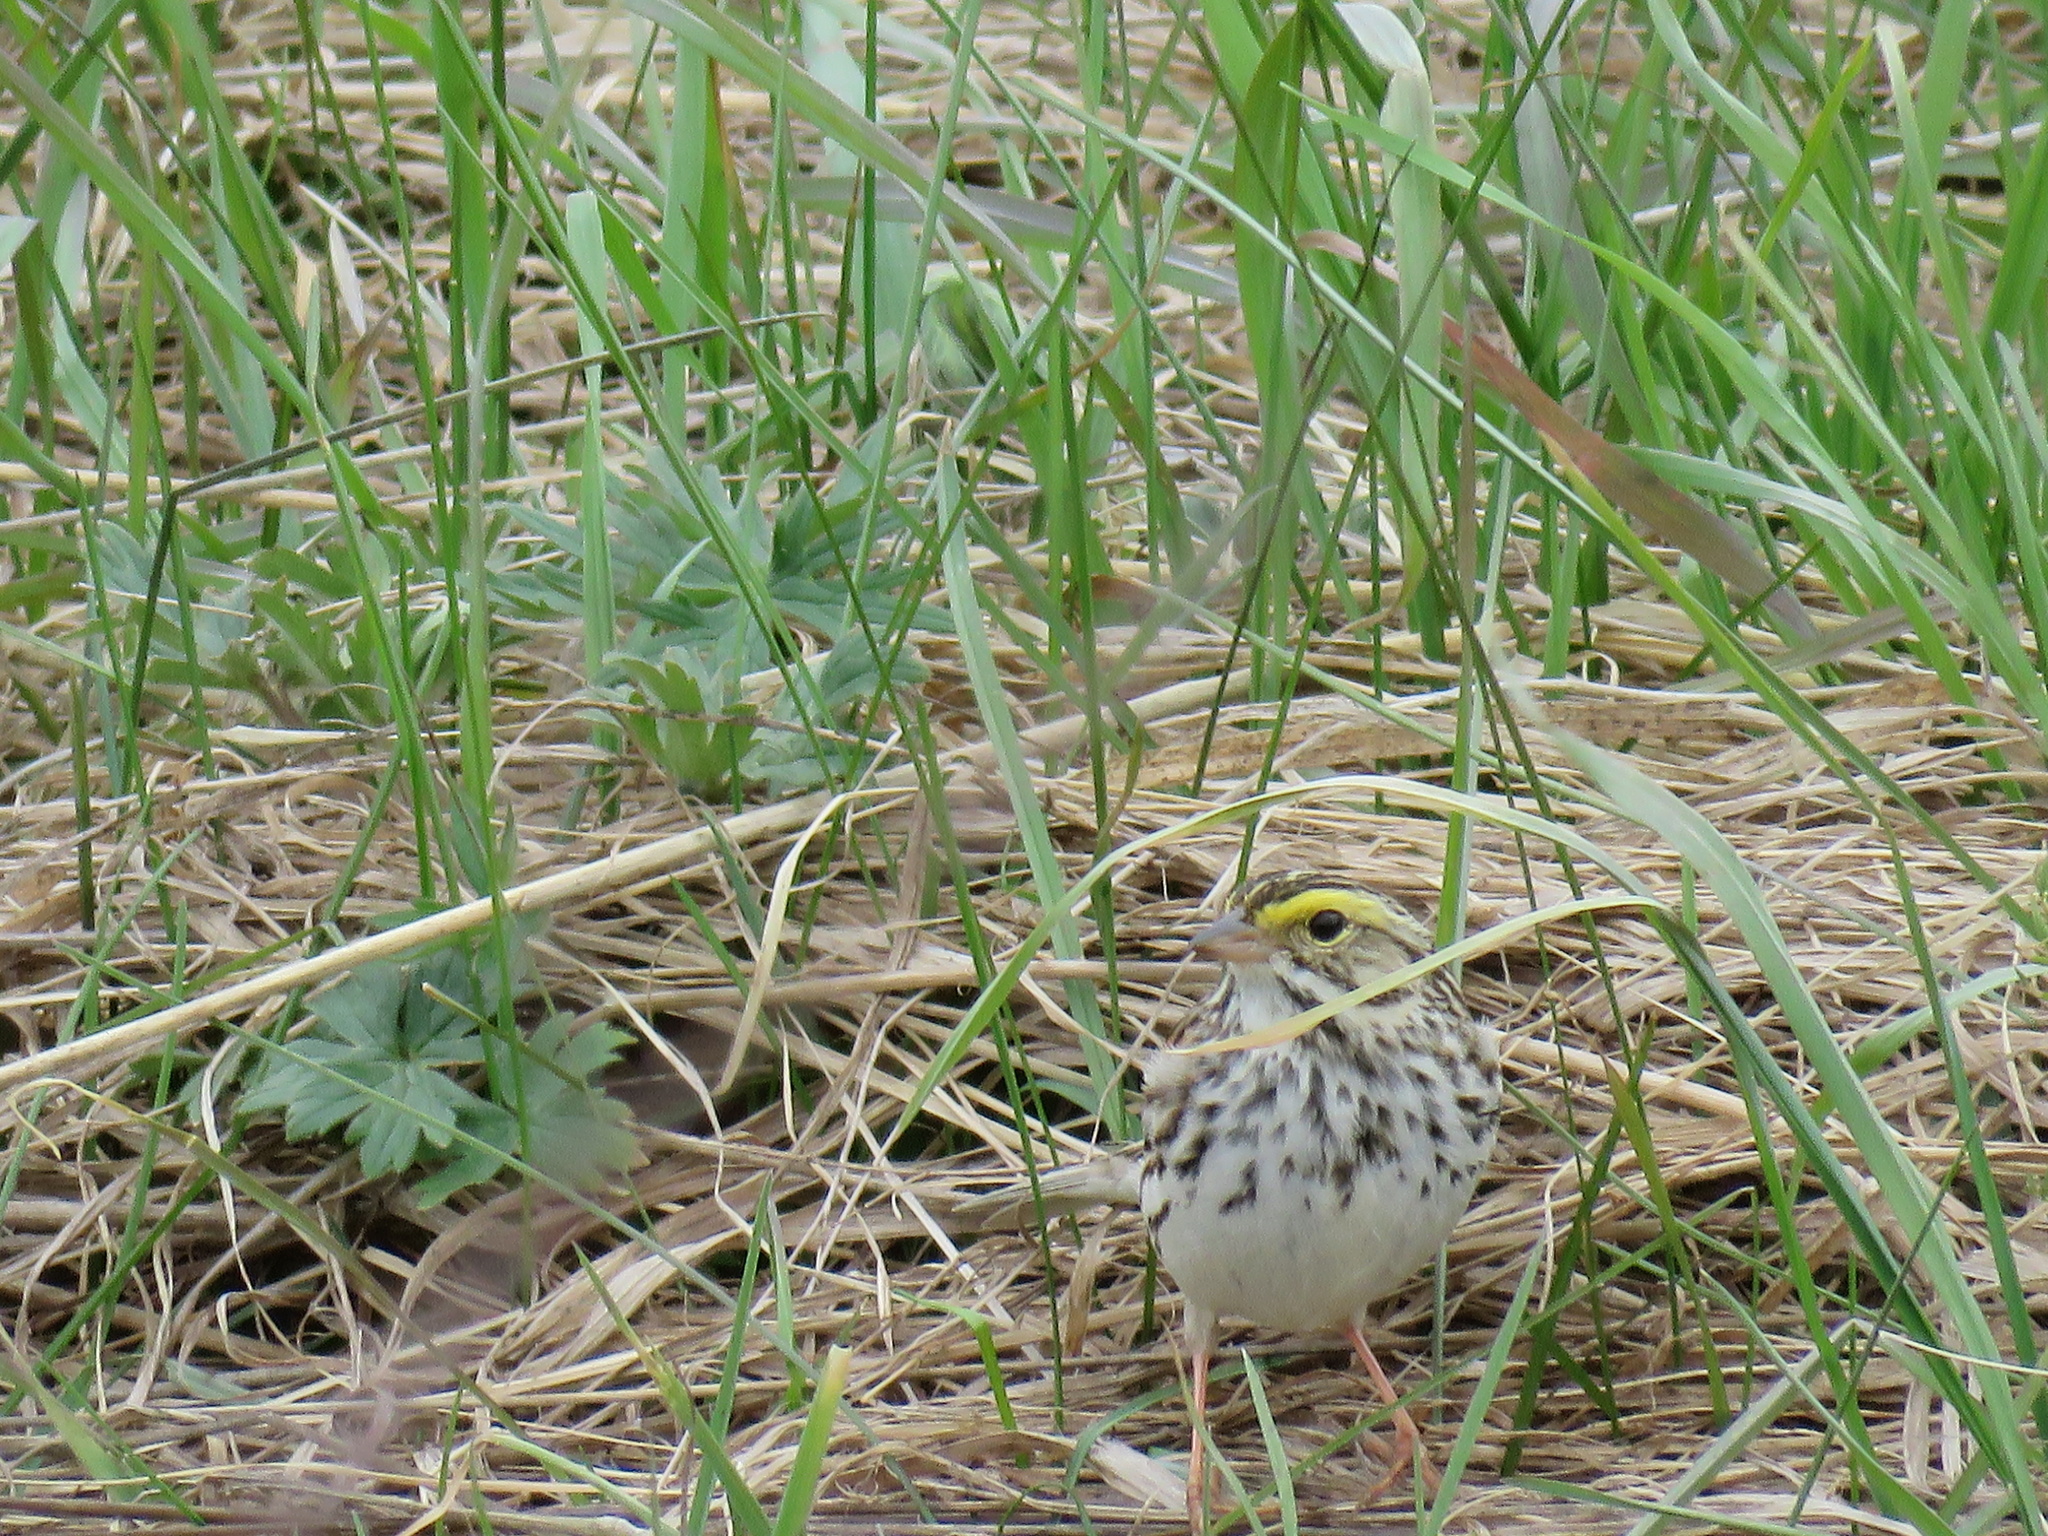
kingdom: Animalia
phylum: Chordata
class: Aves
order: Passeriformes
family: Passerellidae
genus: Passerculus
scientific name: Passerculus sandwichensis
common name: Savannah sparrow
